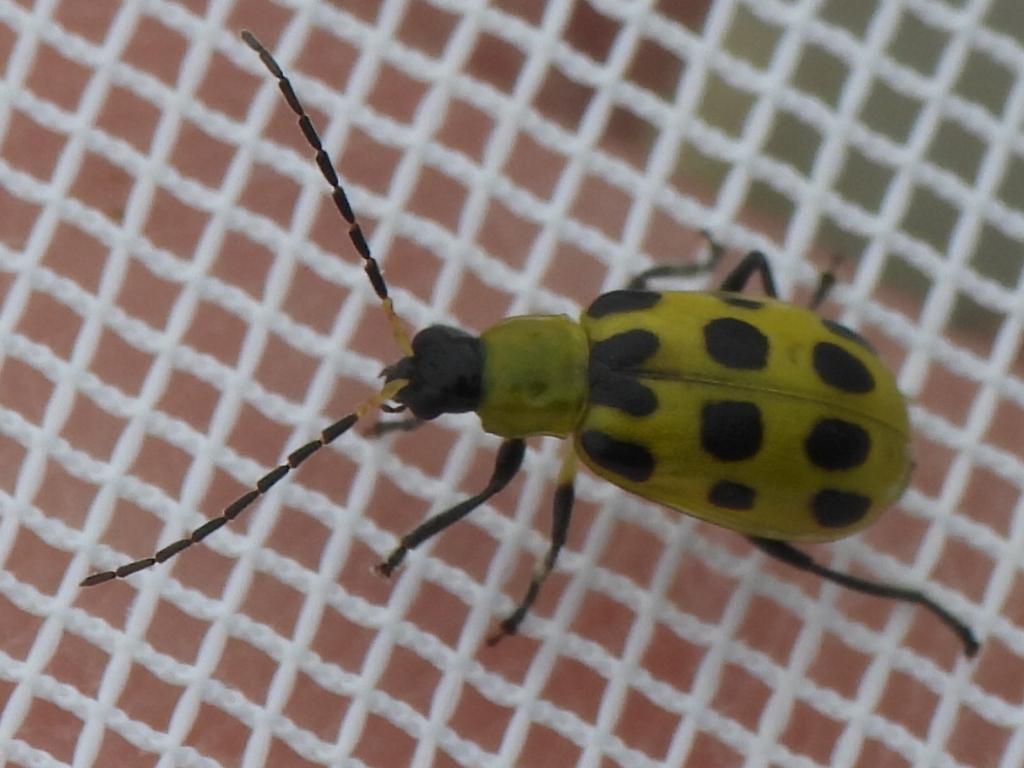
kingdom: Animalia
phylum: Arthropoda
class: Insecta
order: Coleoptera
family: Chrysomelidae
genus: Diabrotica
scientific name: Diabrotica undecimpunctata
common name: Spotted cucumber beetle
